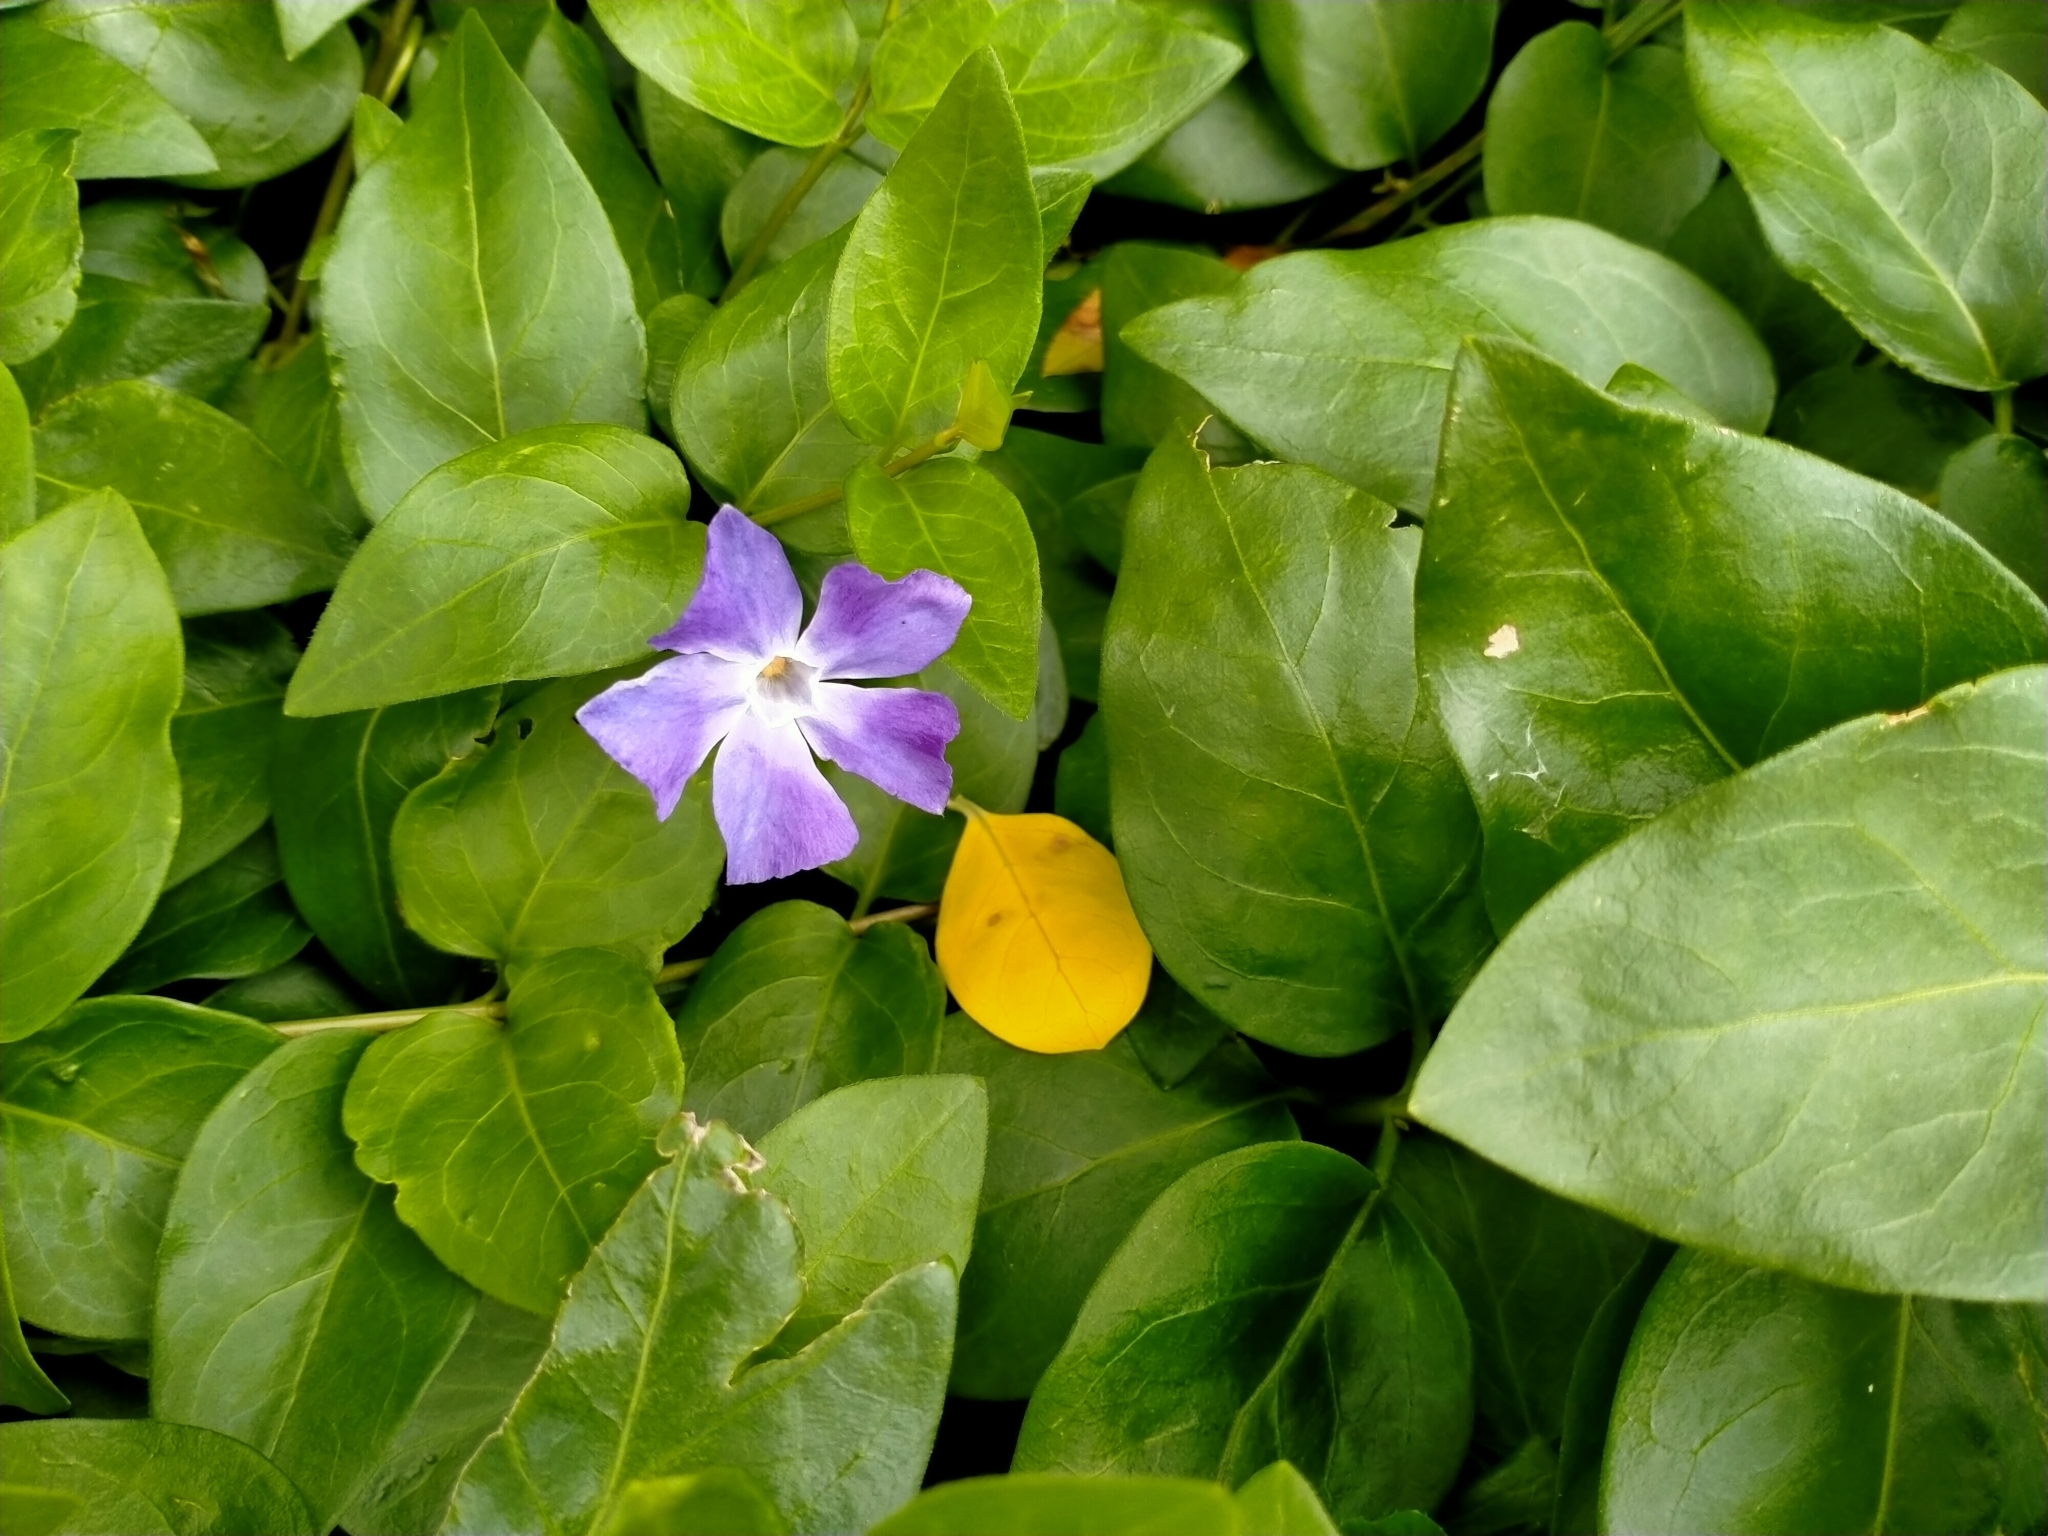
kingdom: Plantae
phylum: Tracheophyta
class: Magnoliopsida
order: Gentianales
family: Apocynaceae
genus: Vinca
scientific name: Vinca major
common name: Greater periwinkle
